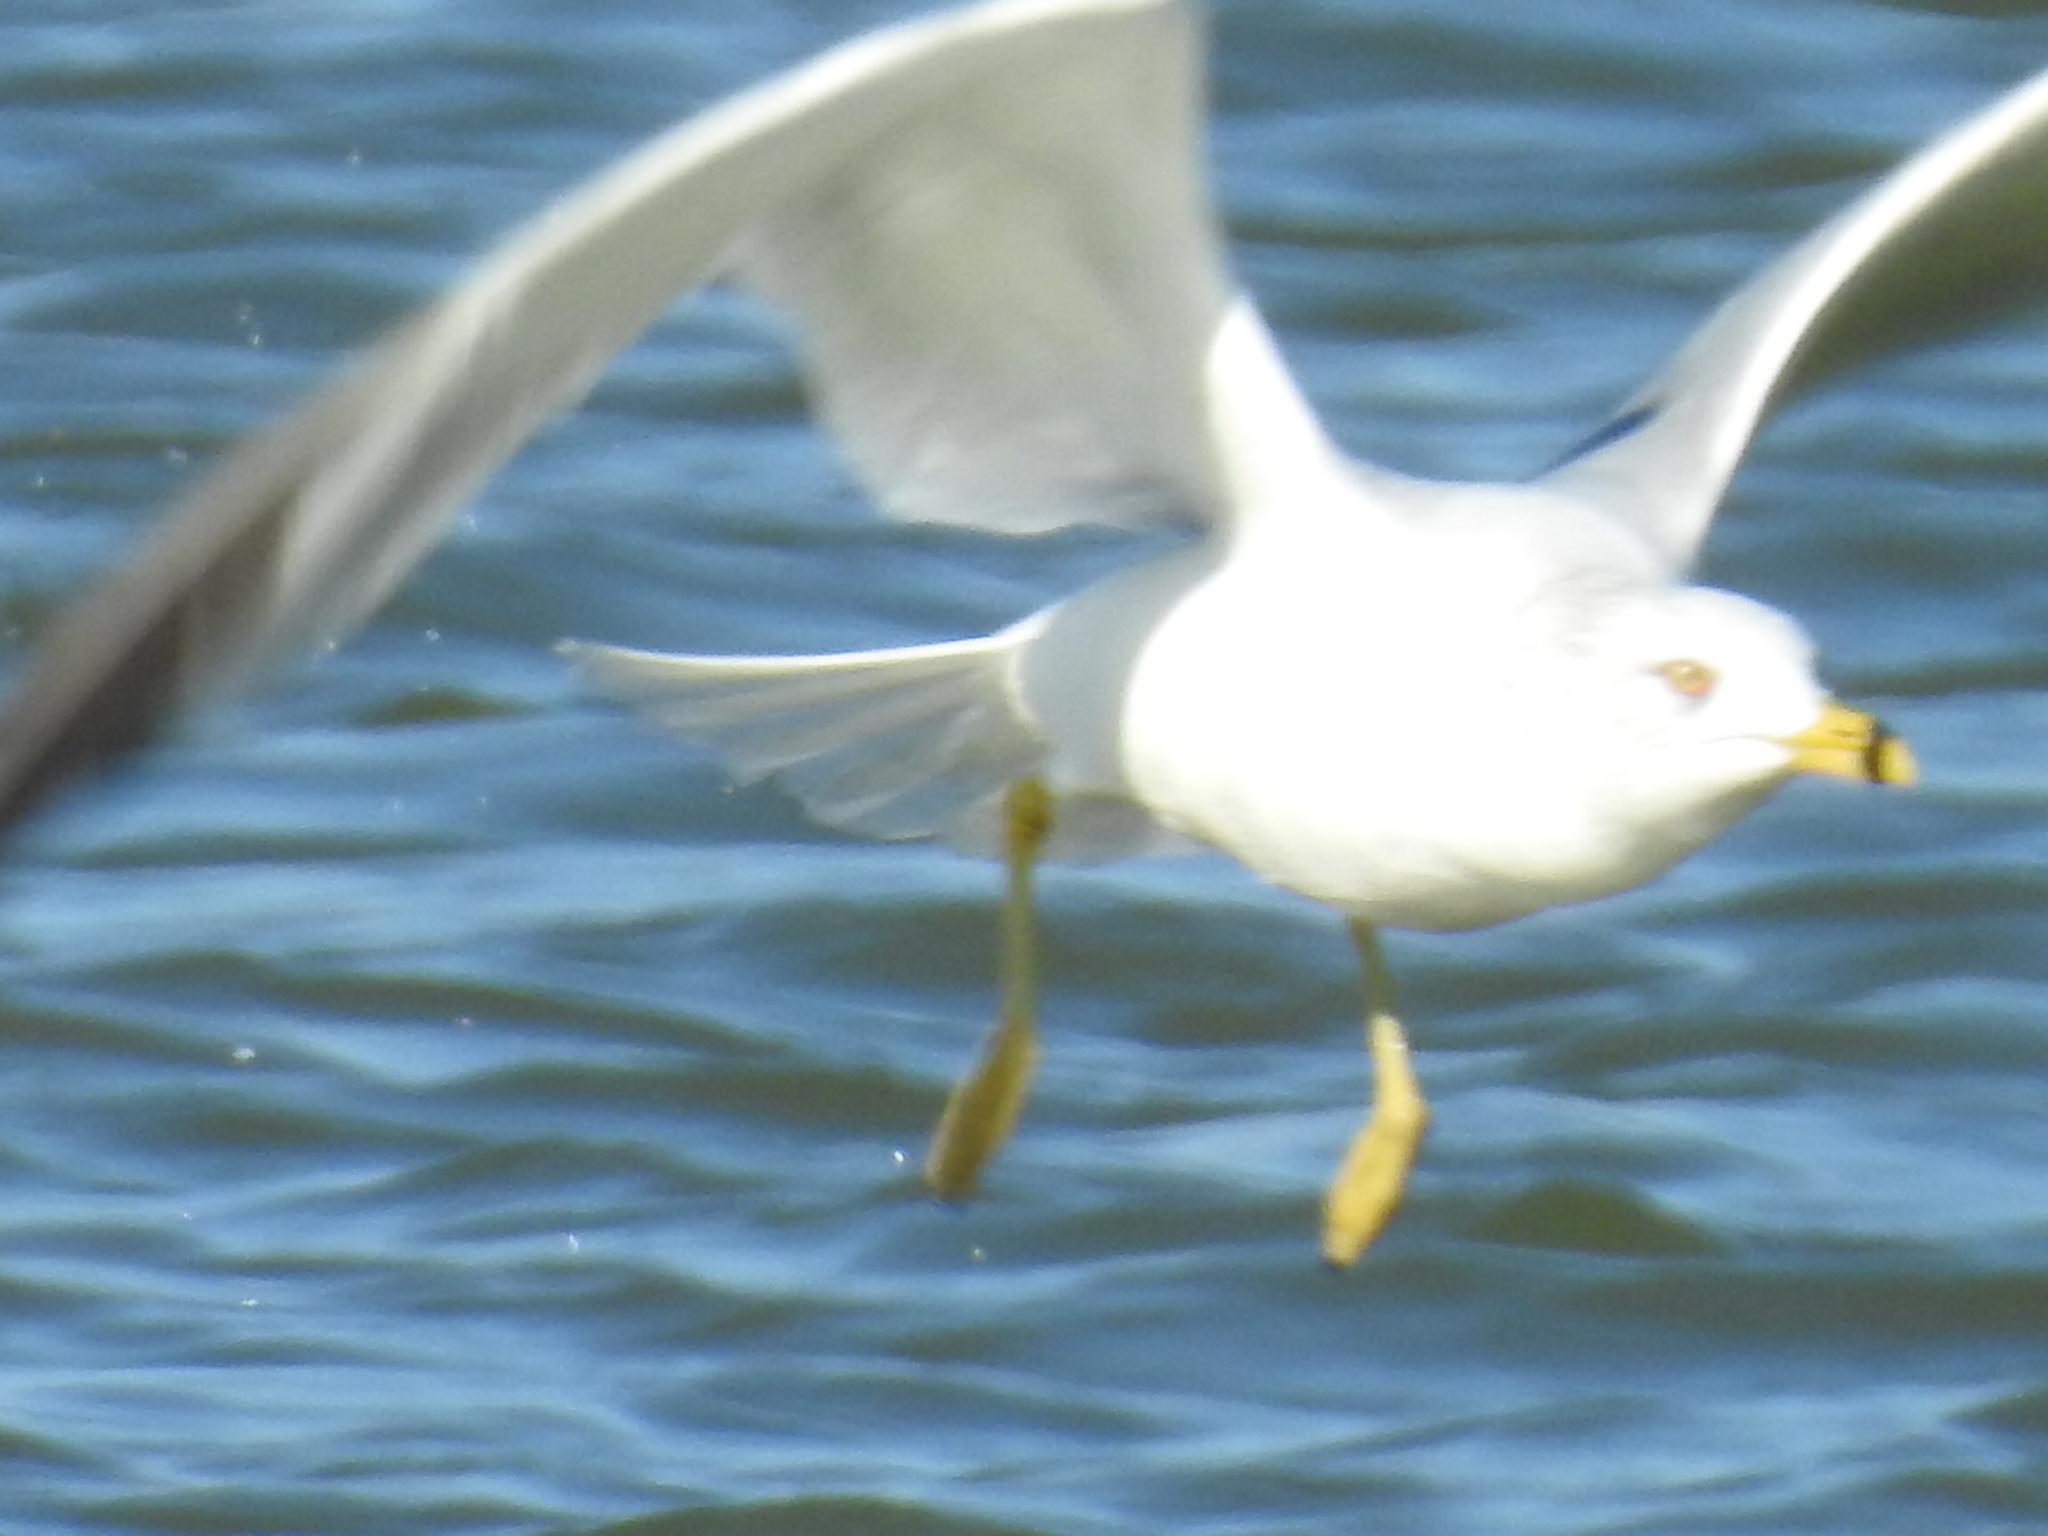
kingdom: Animalia
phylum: Chordata
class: Aves
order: Charadriiformes
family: Laridae
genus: Larus
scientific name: Larus delawarensis
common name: Ring-billed gull
